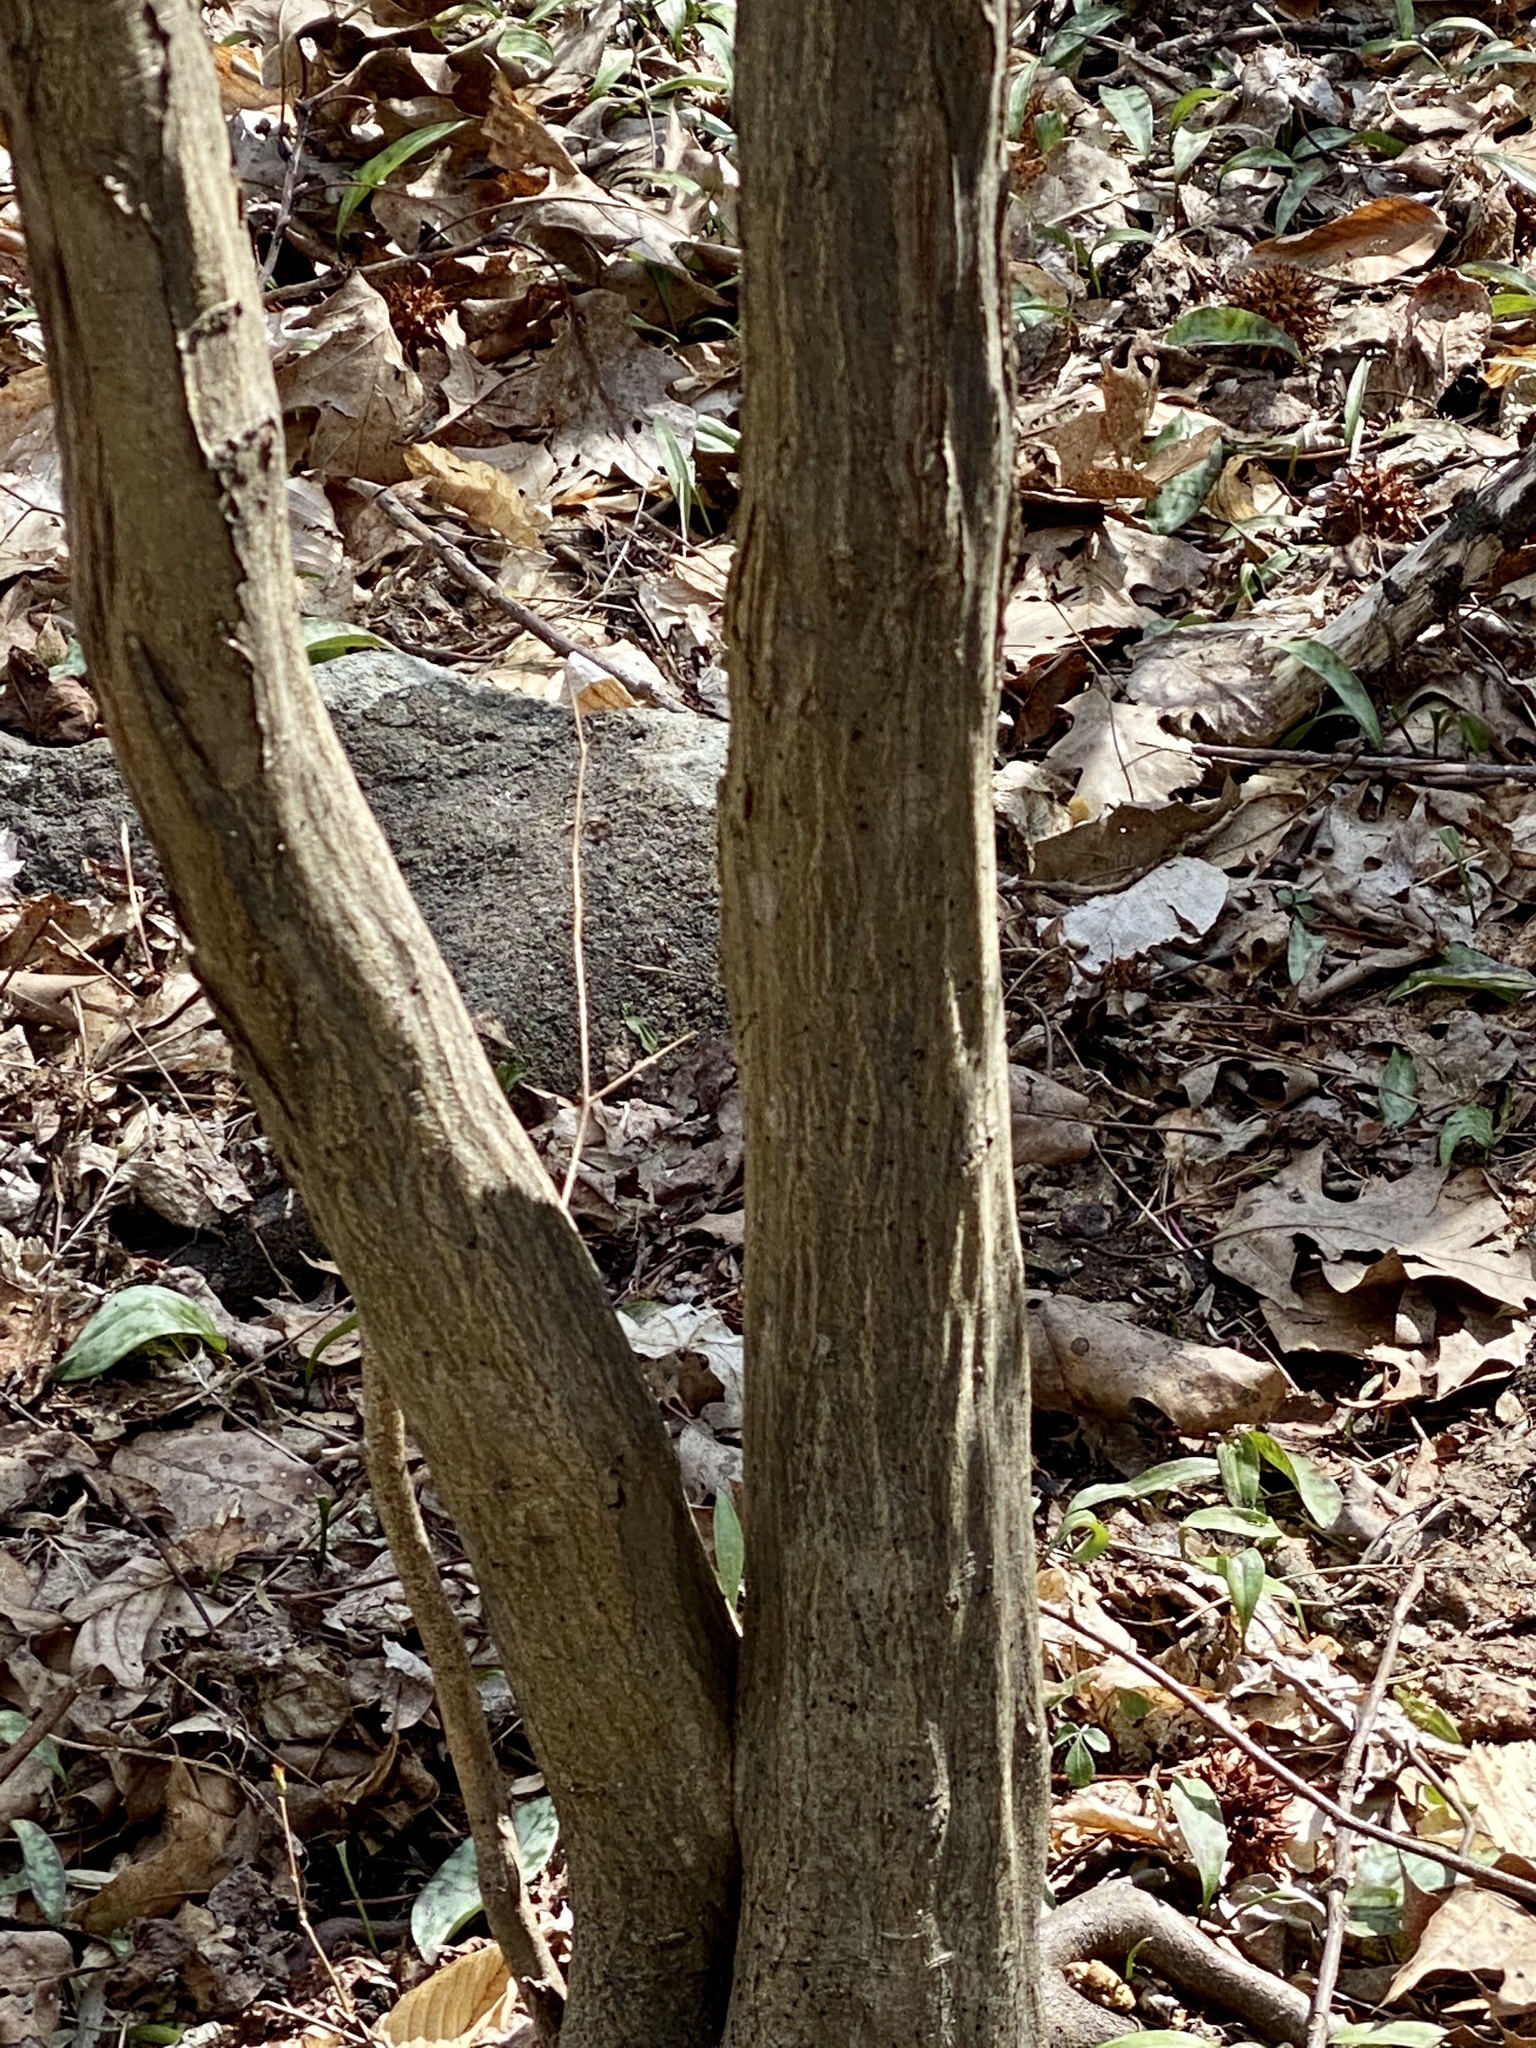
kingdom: Plantae
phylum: Tracheophyta
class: Magnoliopsida
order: Fagales
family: Betulaceae
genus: Carpinus
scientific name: Carpinus caroliniana
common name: American hornbeam
